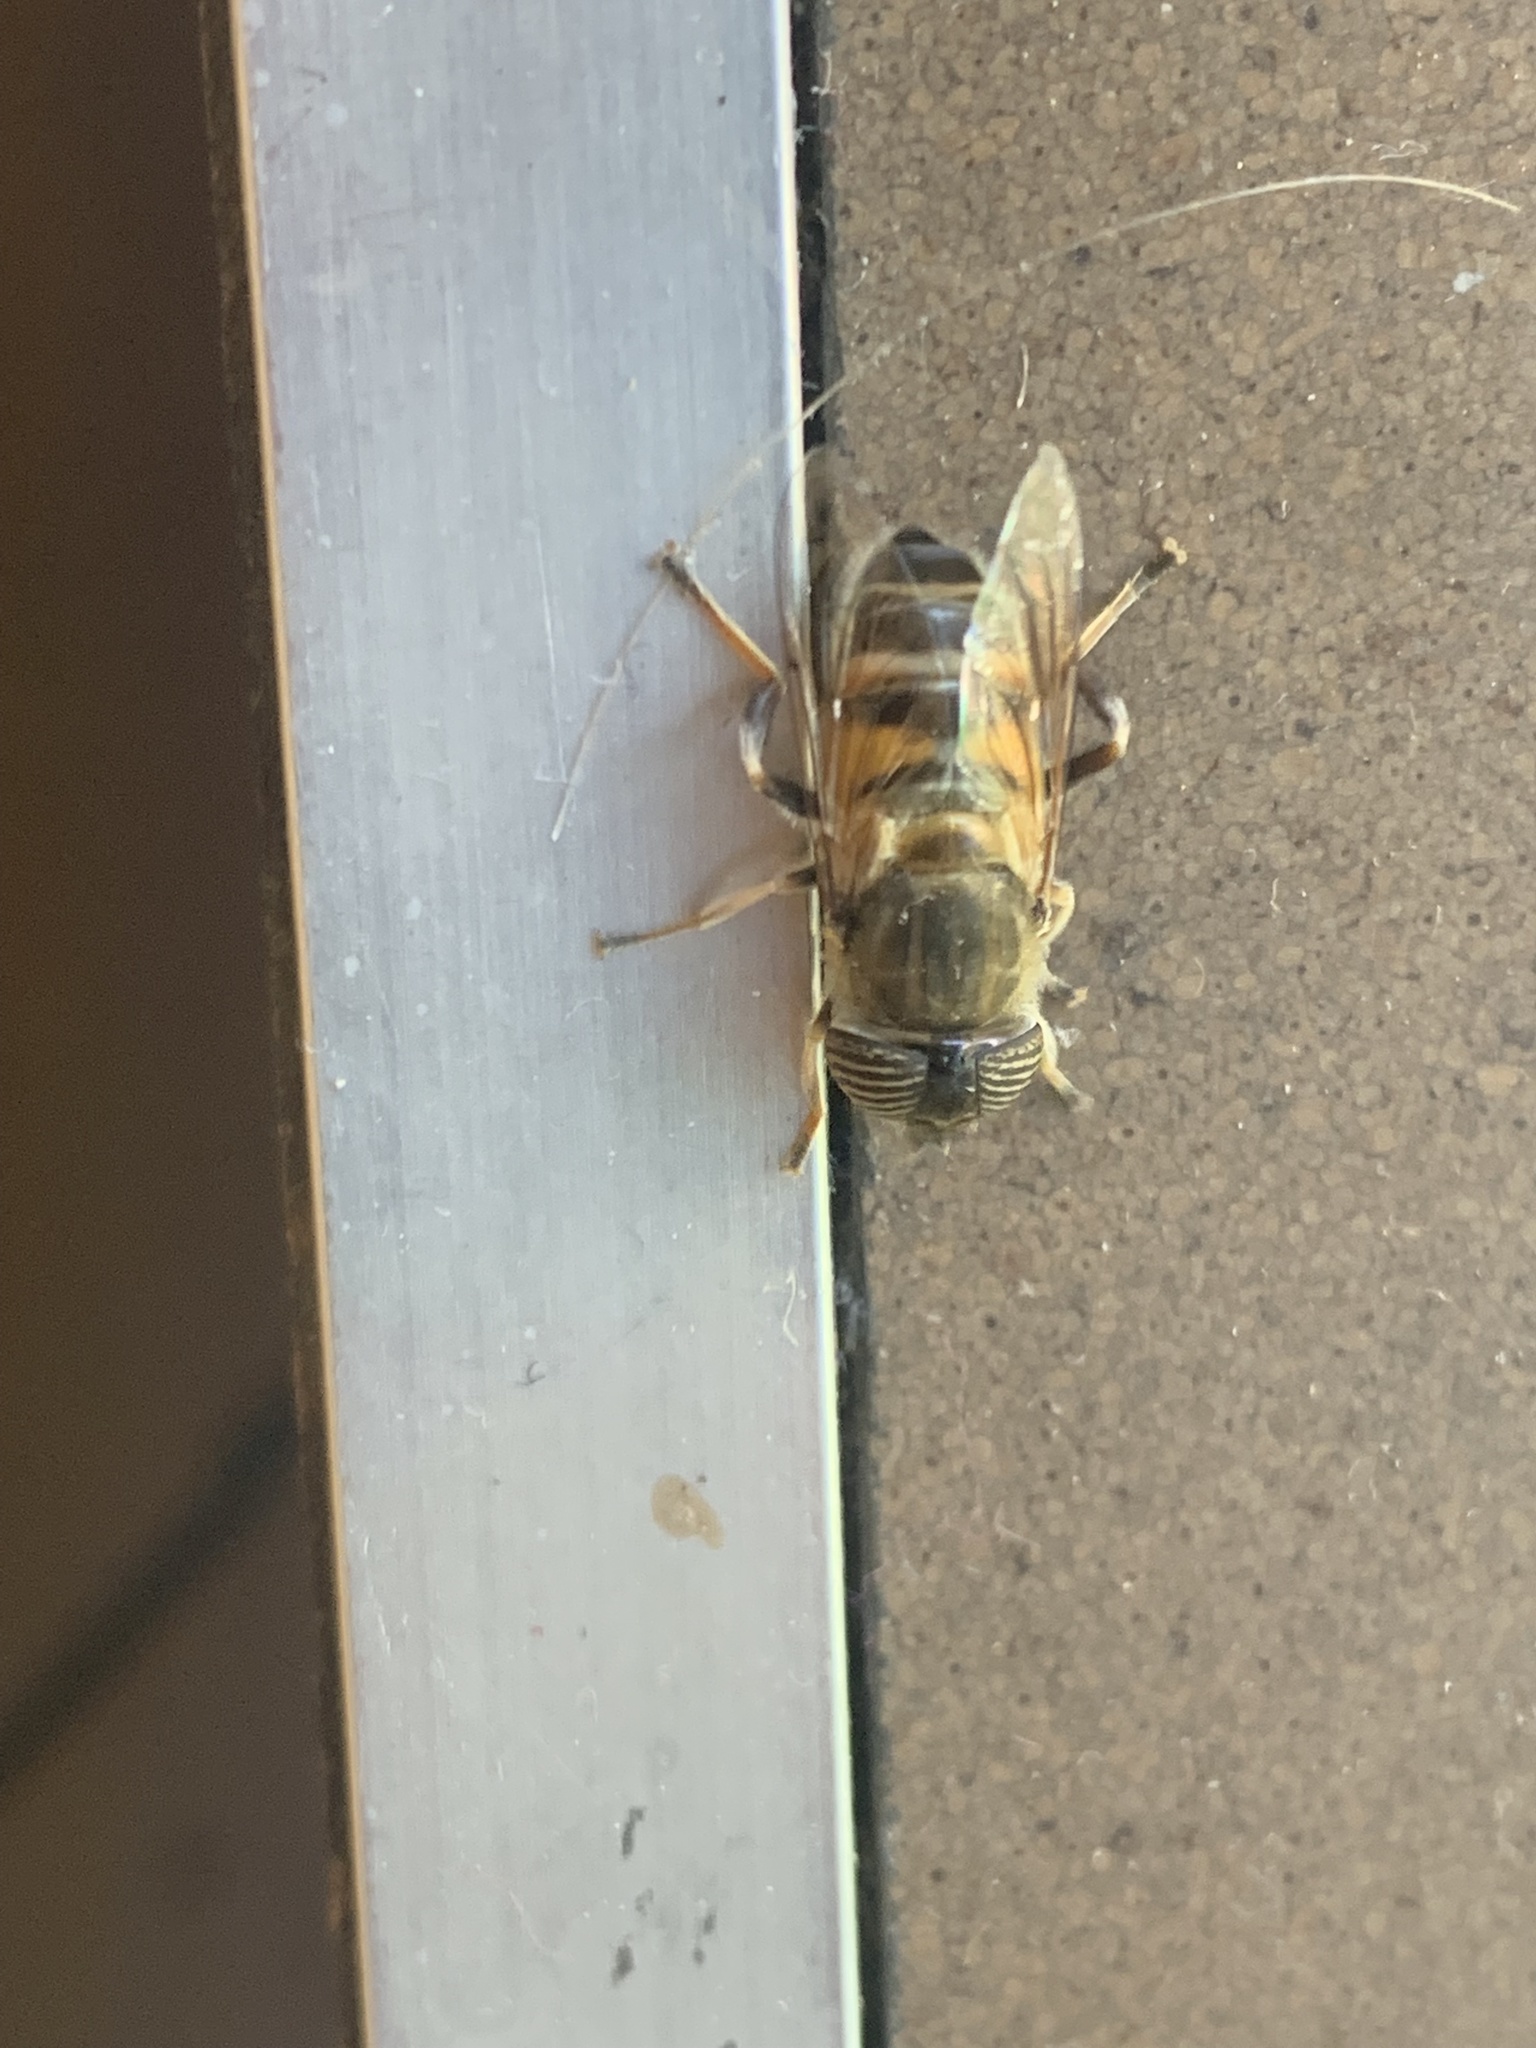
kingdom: Animalia
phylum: Arthropoda
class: Insecta
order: Diptera
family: Syrphidae
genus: Eristalinus
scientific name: Eristalinus taeniops
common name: Syrphid fly
